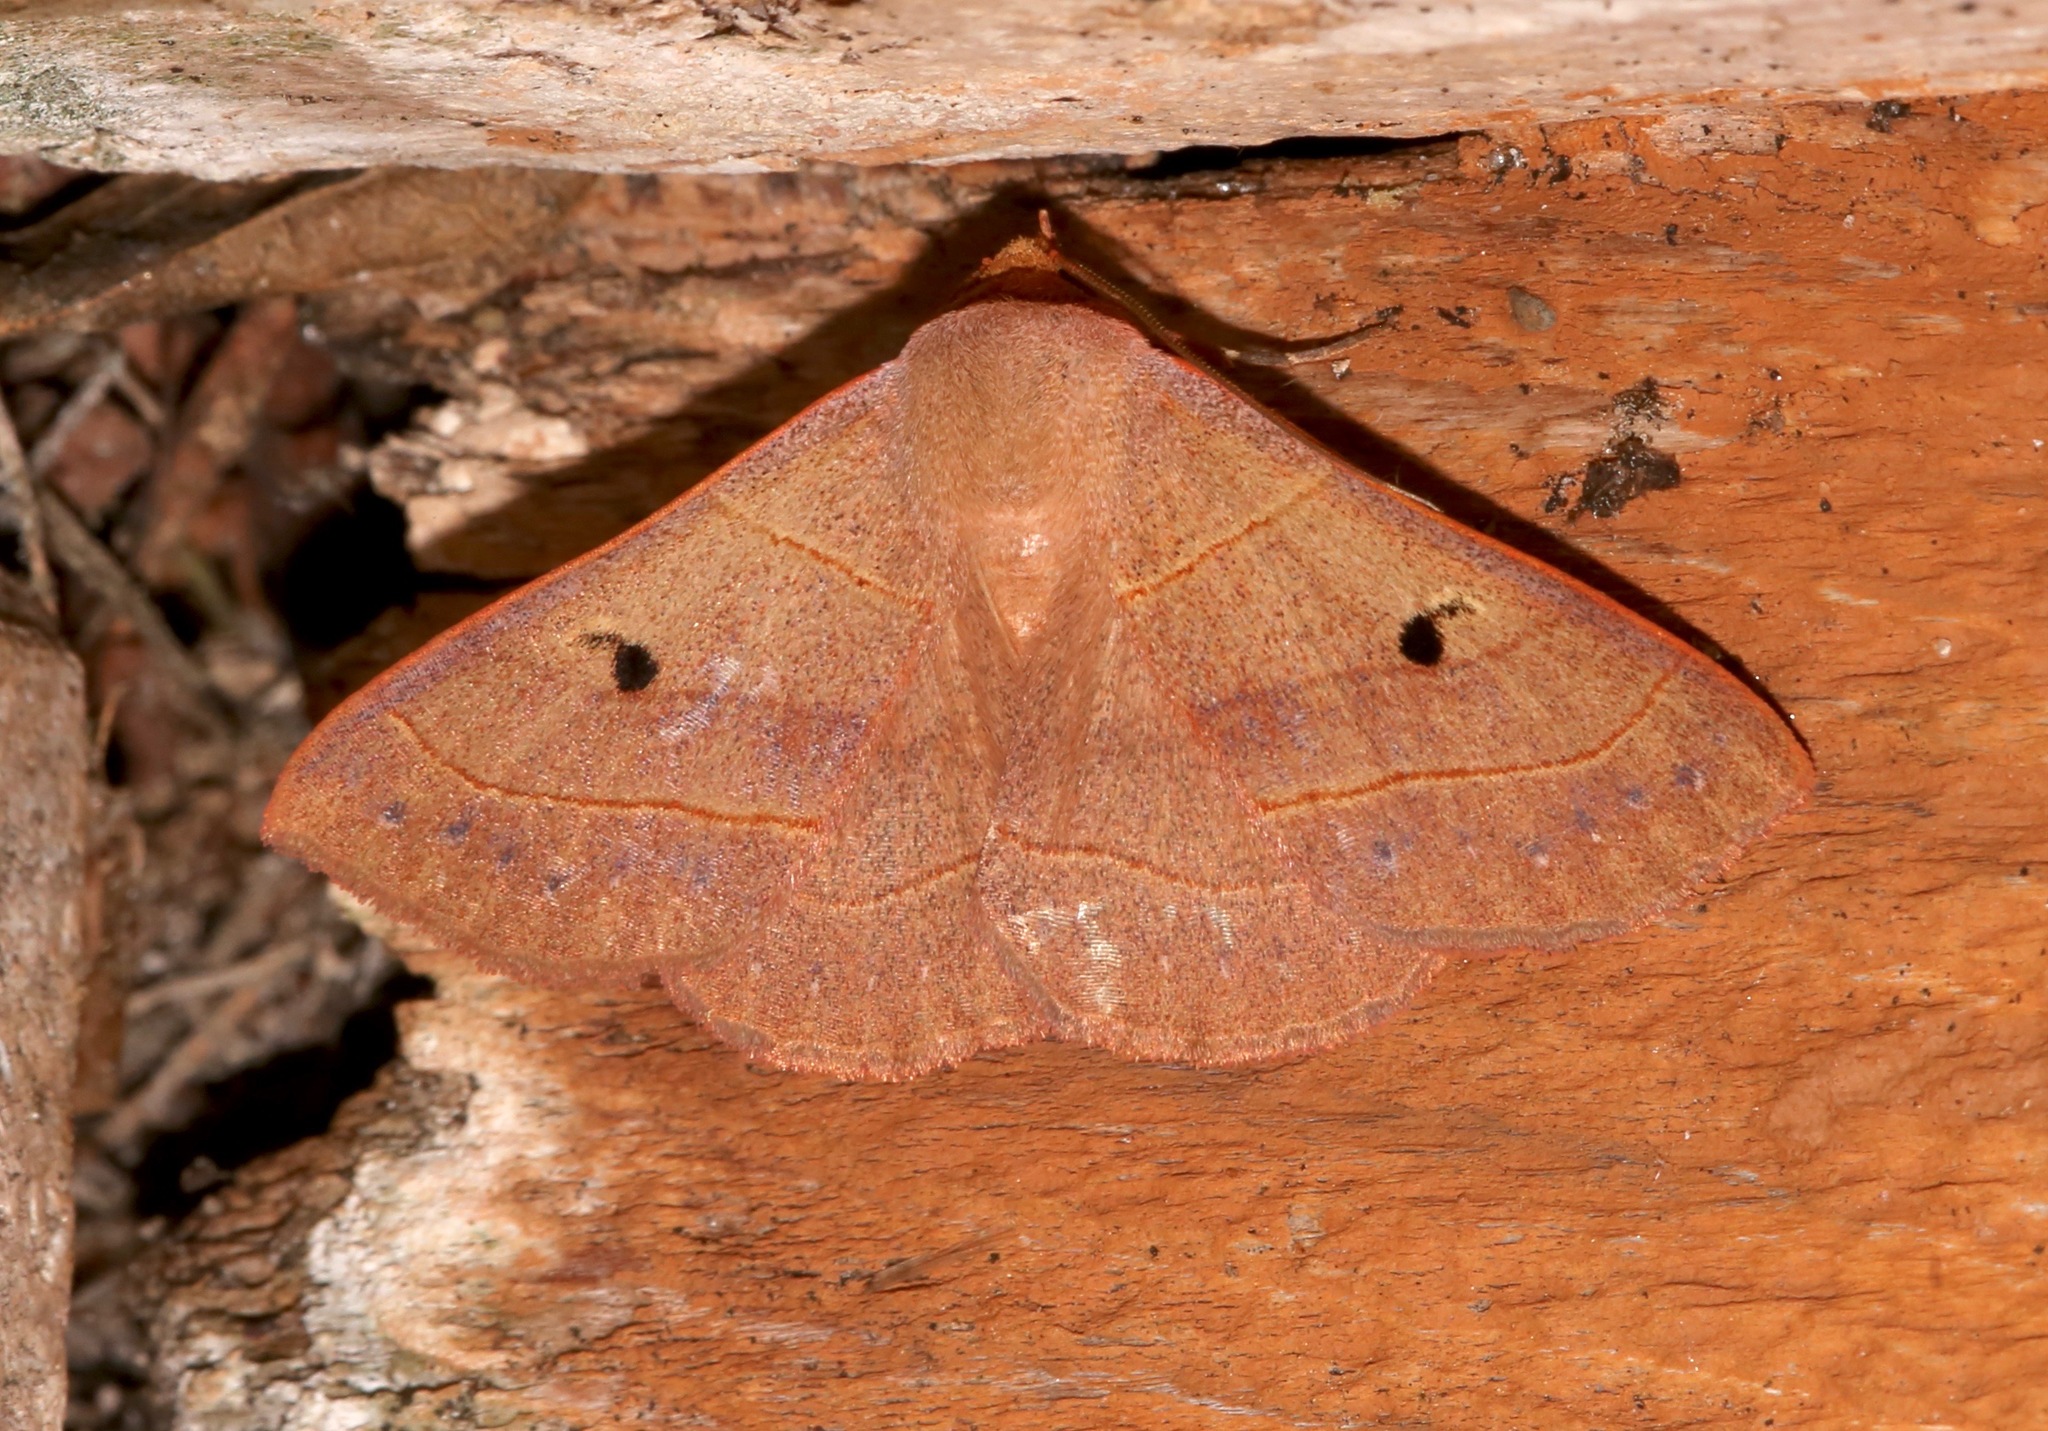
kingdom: Animalia
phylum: Arthropoda
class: Insecta
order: Lepidoptera
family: Erebidae
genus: Panopoda
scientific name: Panopoda rufimargo
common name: Red-lined panopoda moth
